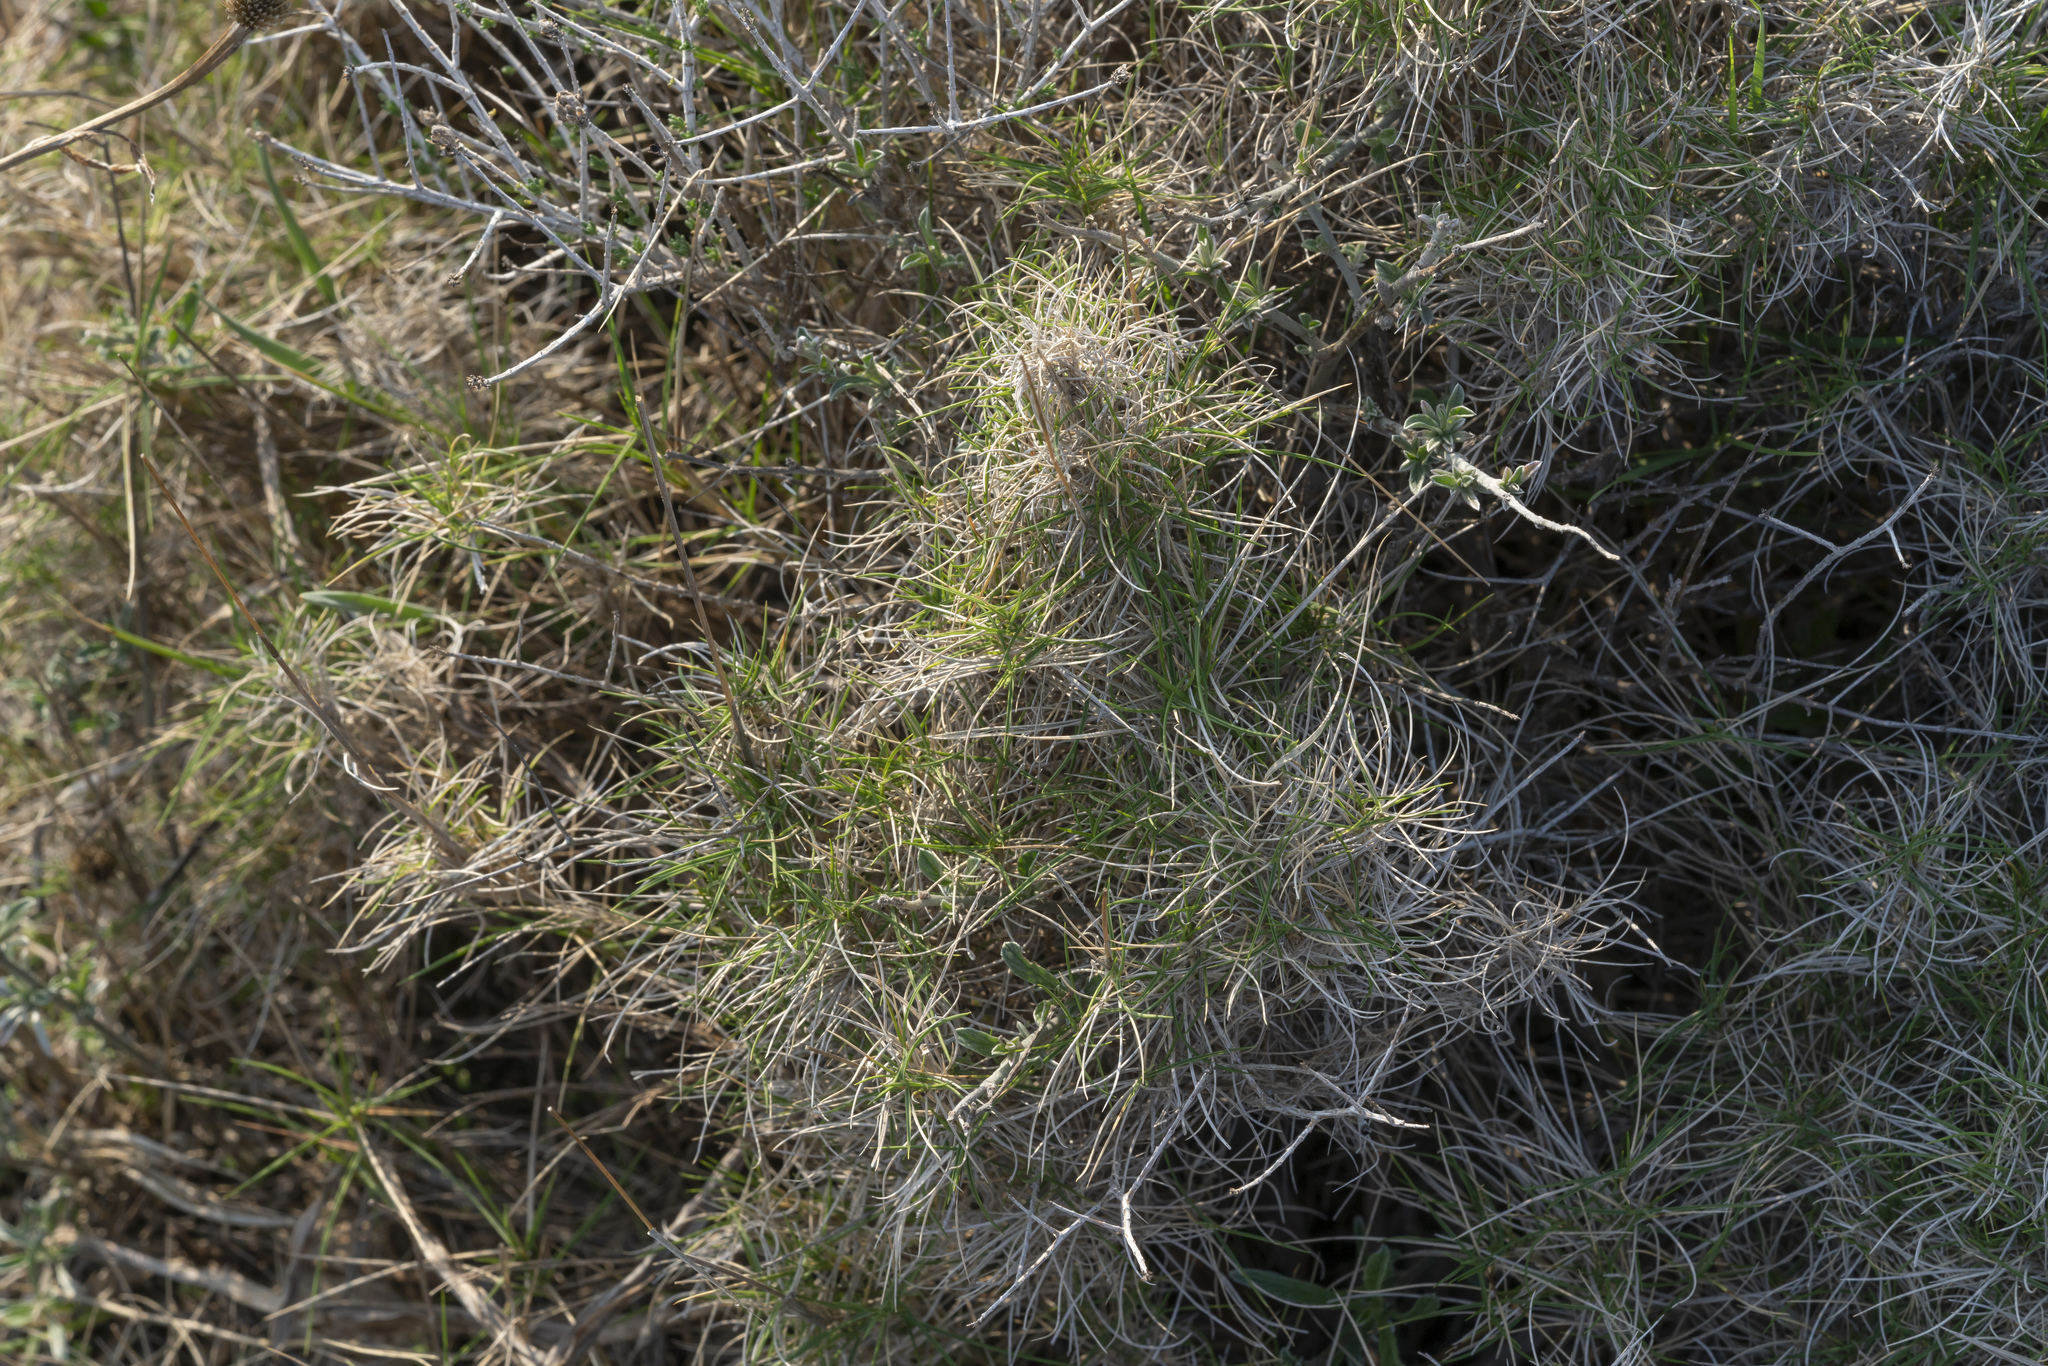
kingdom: Plantae
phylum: Tracheophyta
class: Liliopsida
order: Poales
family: Poaceae
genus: Brachypodium
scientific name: Brachypodium retusum
